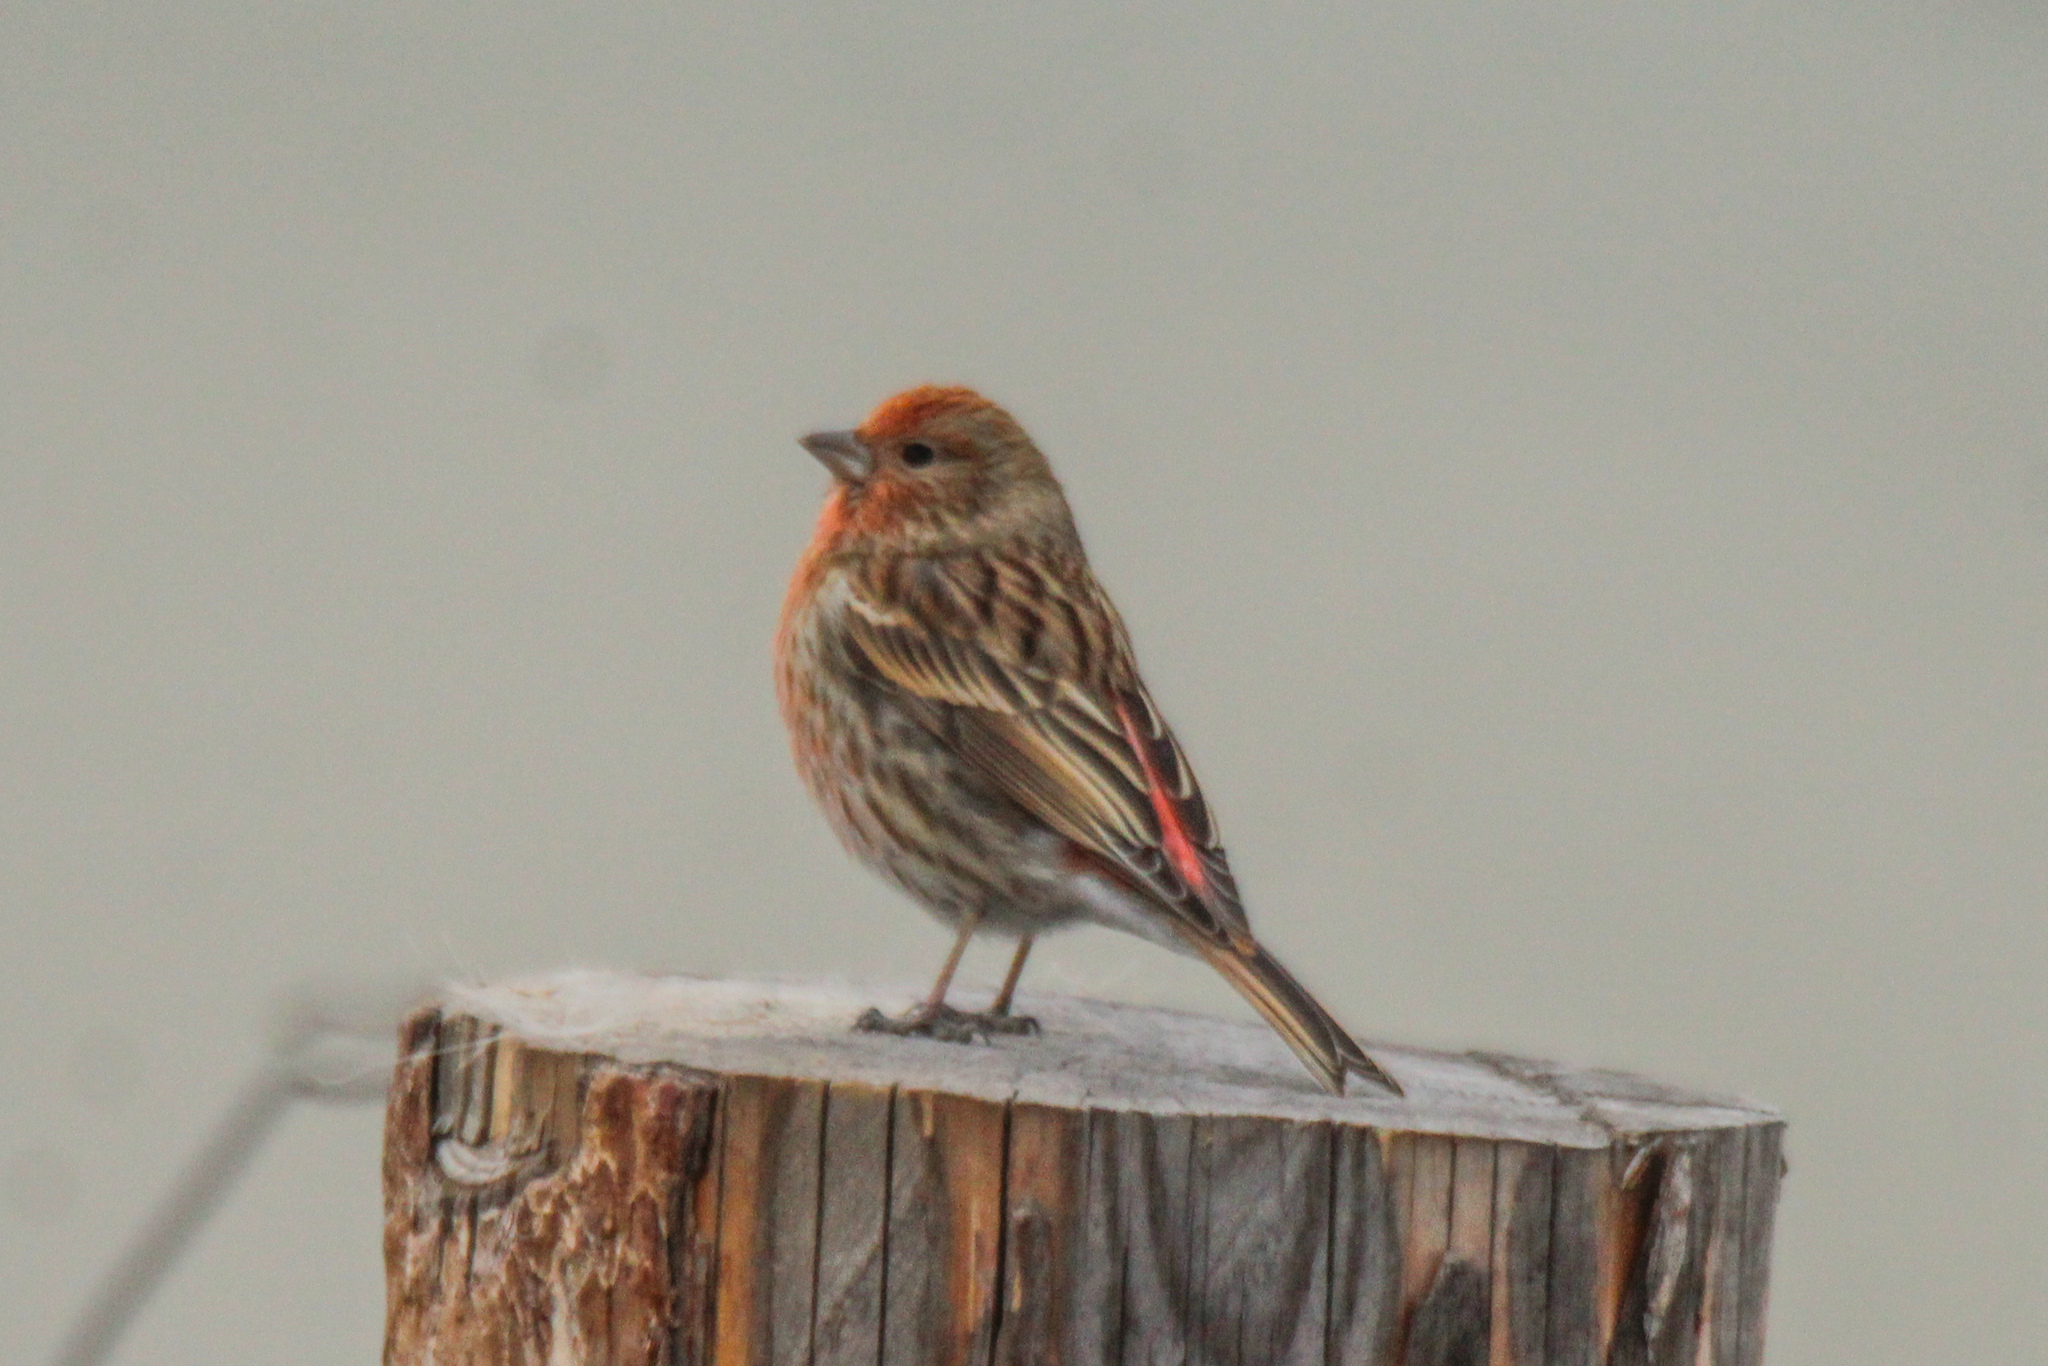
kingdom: Animalia
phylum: Chordata
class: Aves
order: Passeriformes
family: Fringillidae
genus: Carpodacus
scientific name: Carpodacus roseus
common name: Pallas's rosefinch
